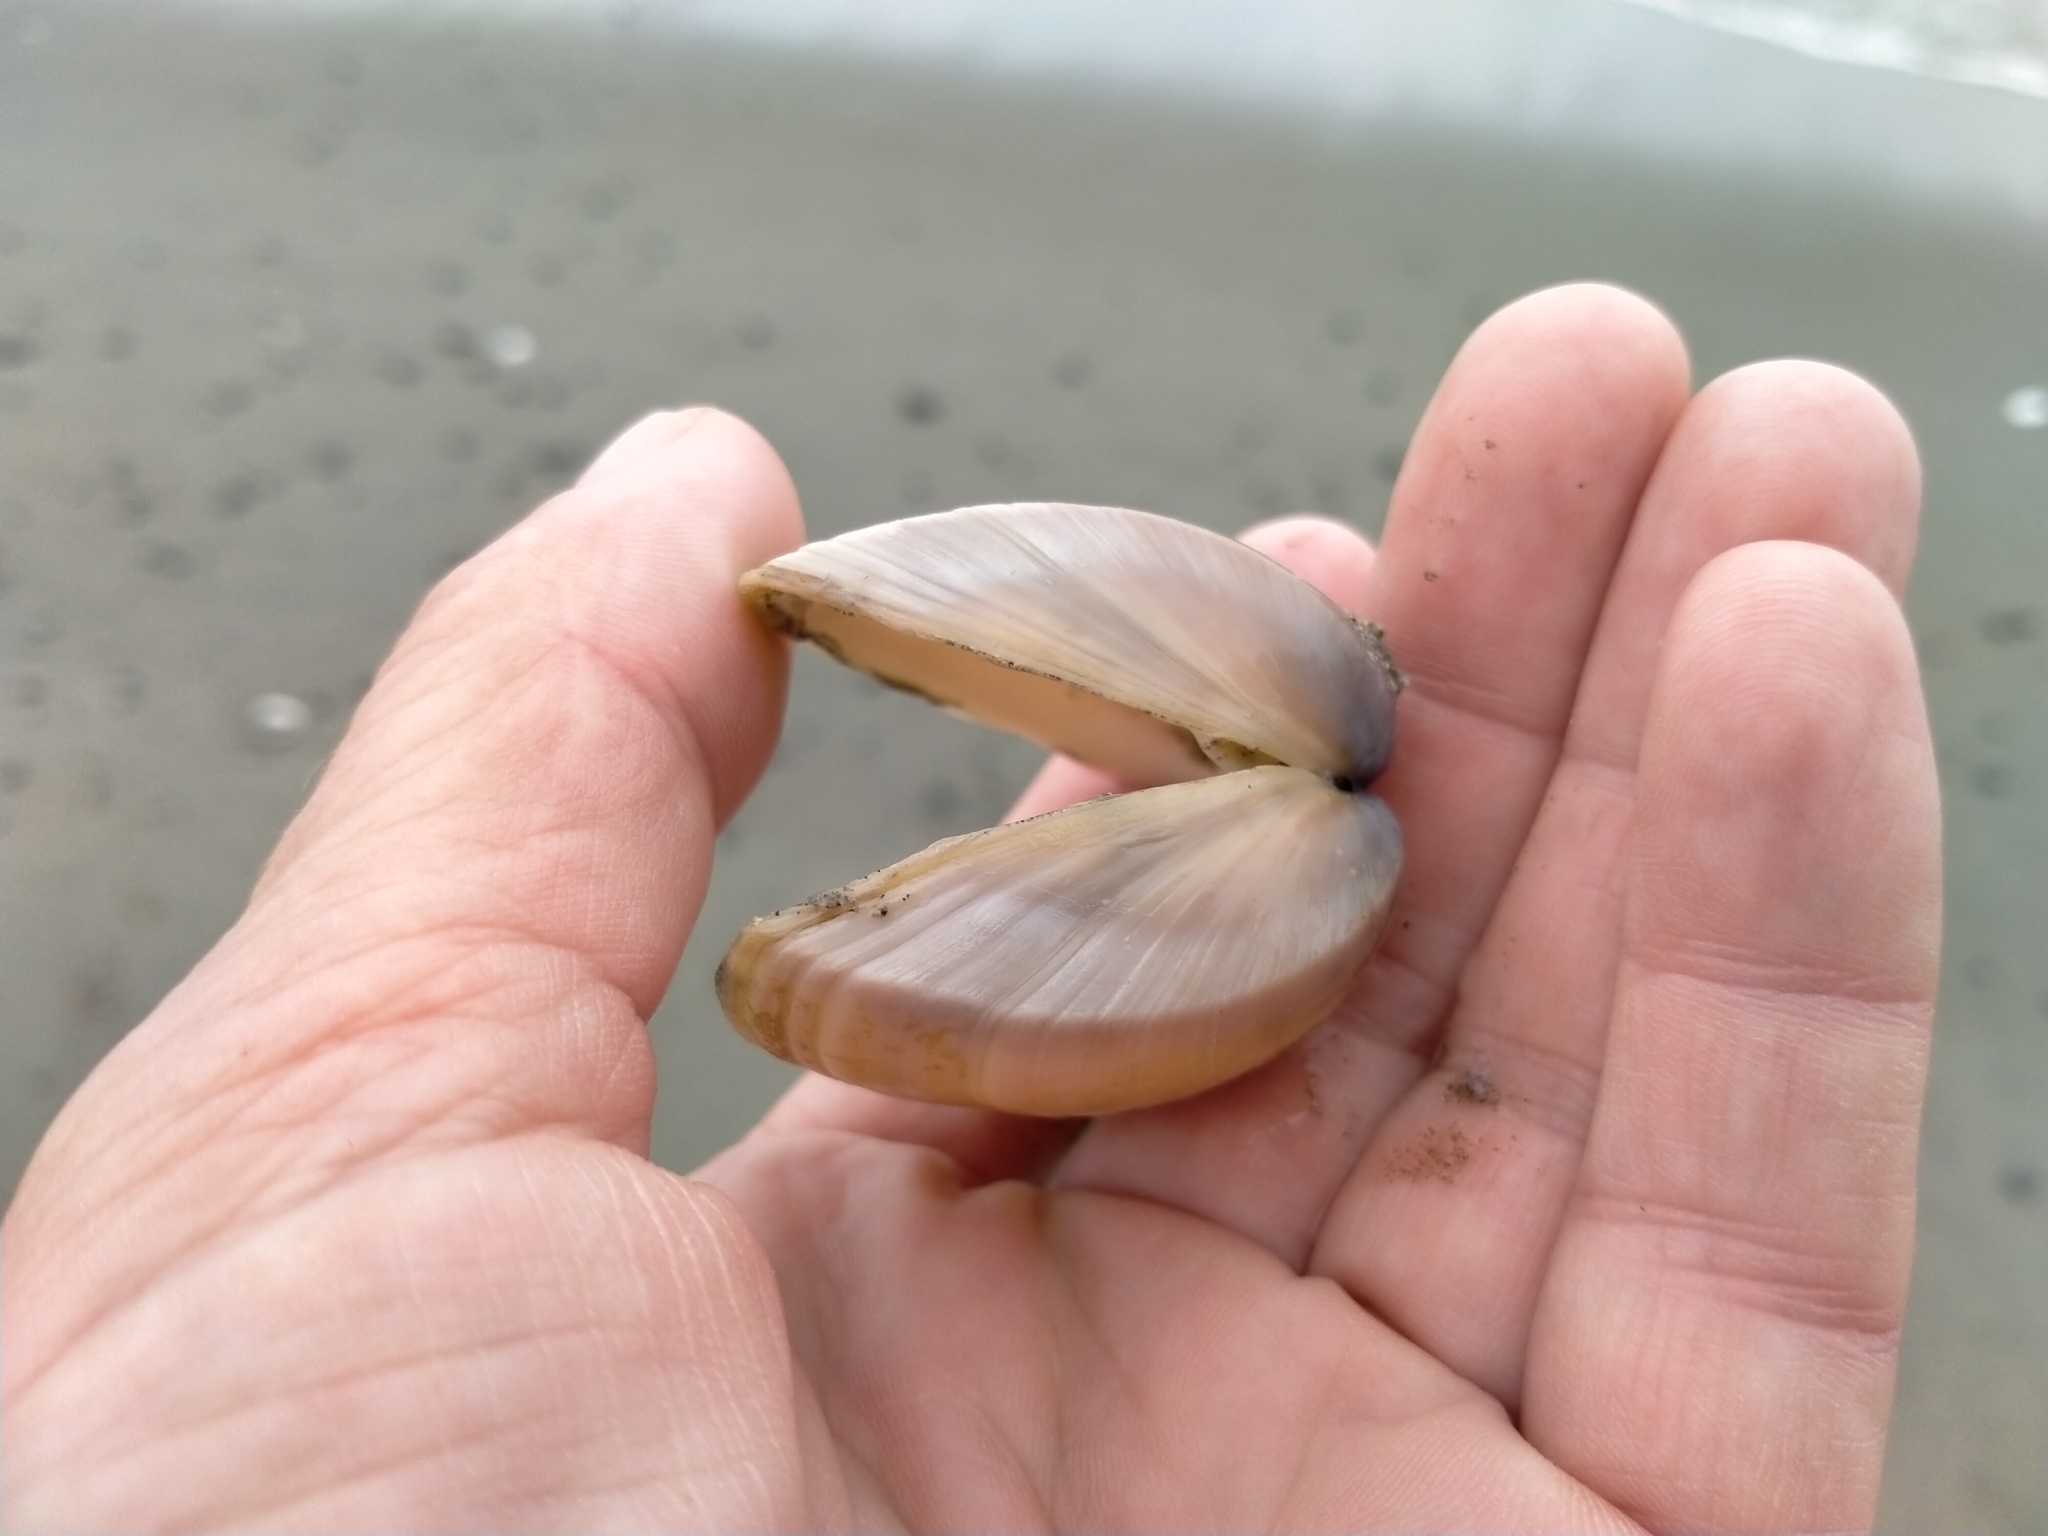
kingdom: Animalia
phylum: Mollusca
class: Bivalvia
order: Venerida
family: Mactridae
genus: Crassula
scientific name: Crassula aequilatera
